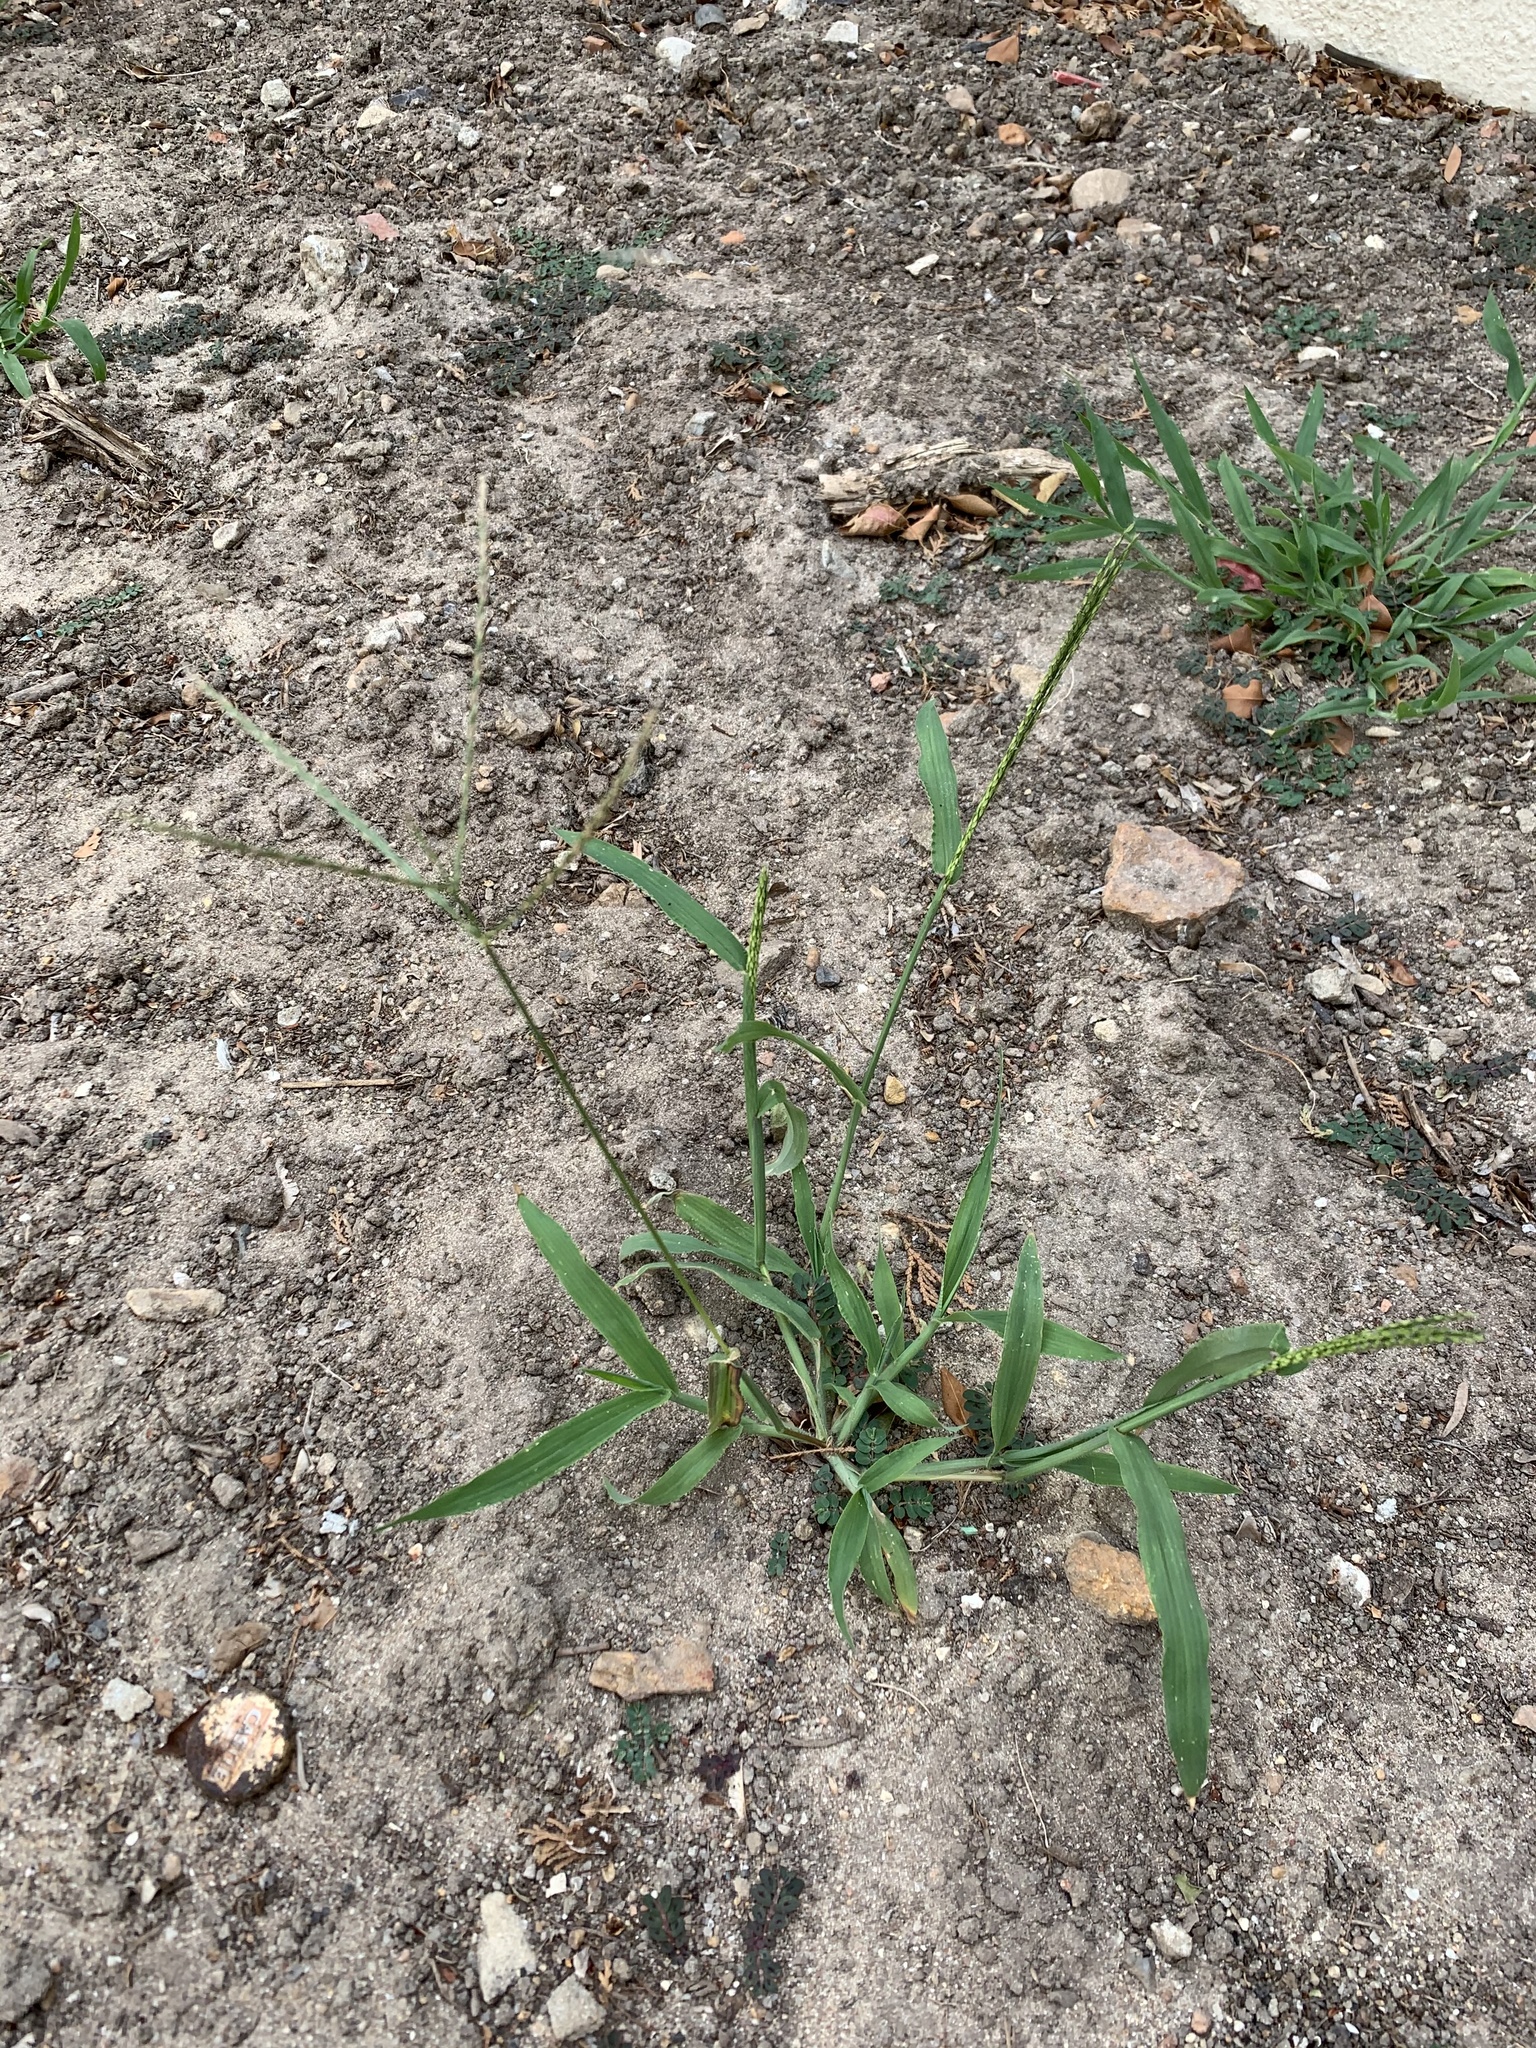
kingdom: Plantae
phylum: Tracheophyta
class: Liliopsida
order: Poales
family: Poaceae
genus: Digitaria
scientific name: Digitaria sanguinalis
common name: Hairy crabgrass
